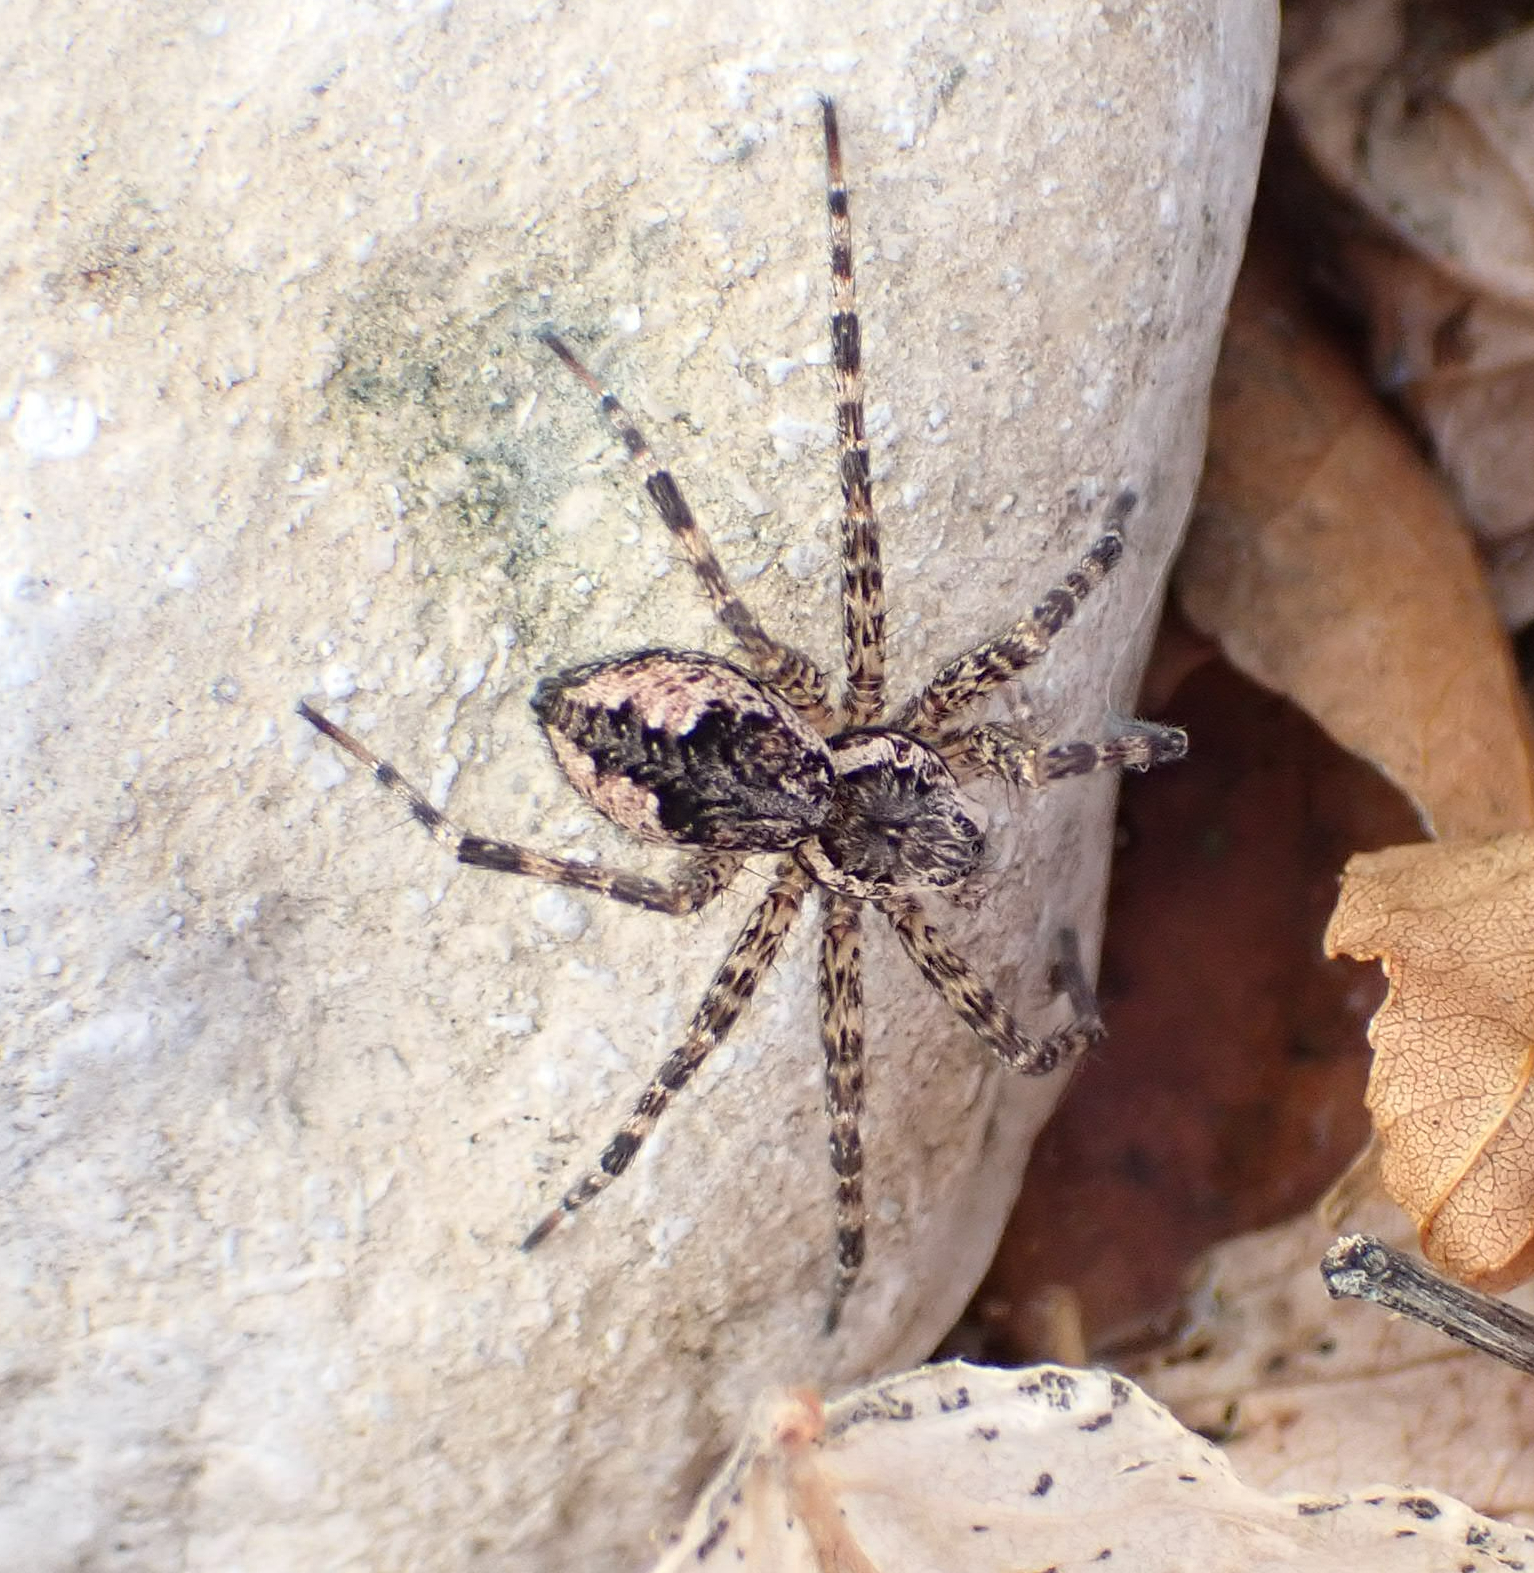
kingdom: Animalia
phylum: Arthropoda
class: Arachnida
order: Araneae
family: Pisauridae
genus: Dolomedes
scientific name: Dolomedes tenebrosus
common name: Dark fishing spider
